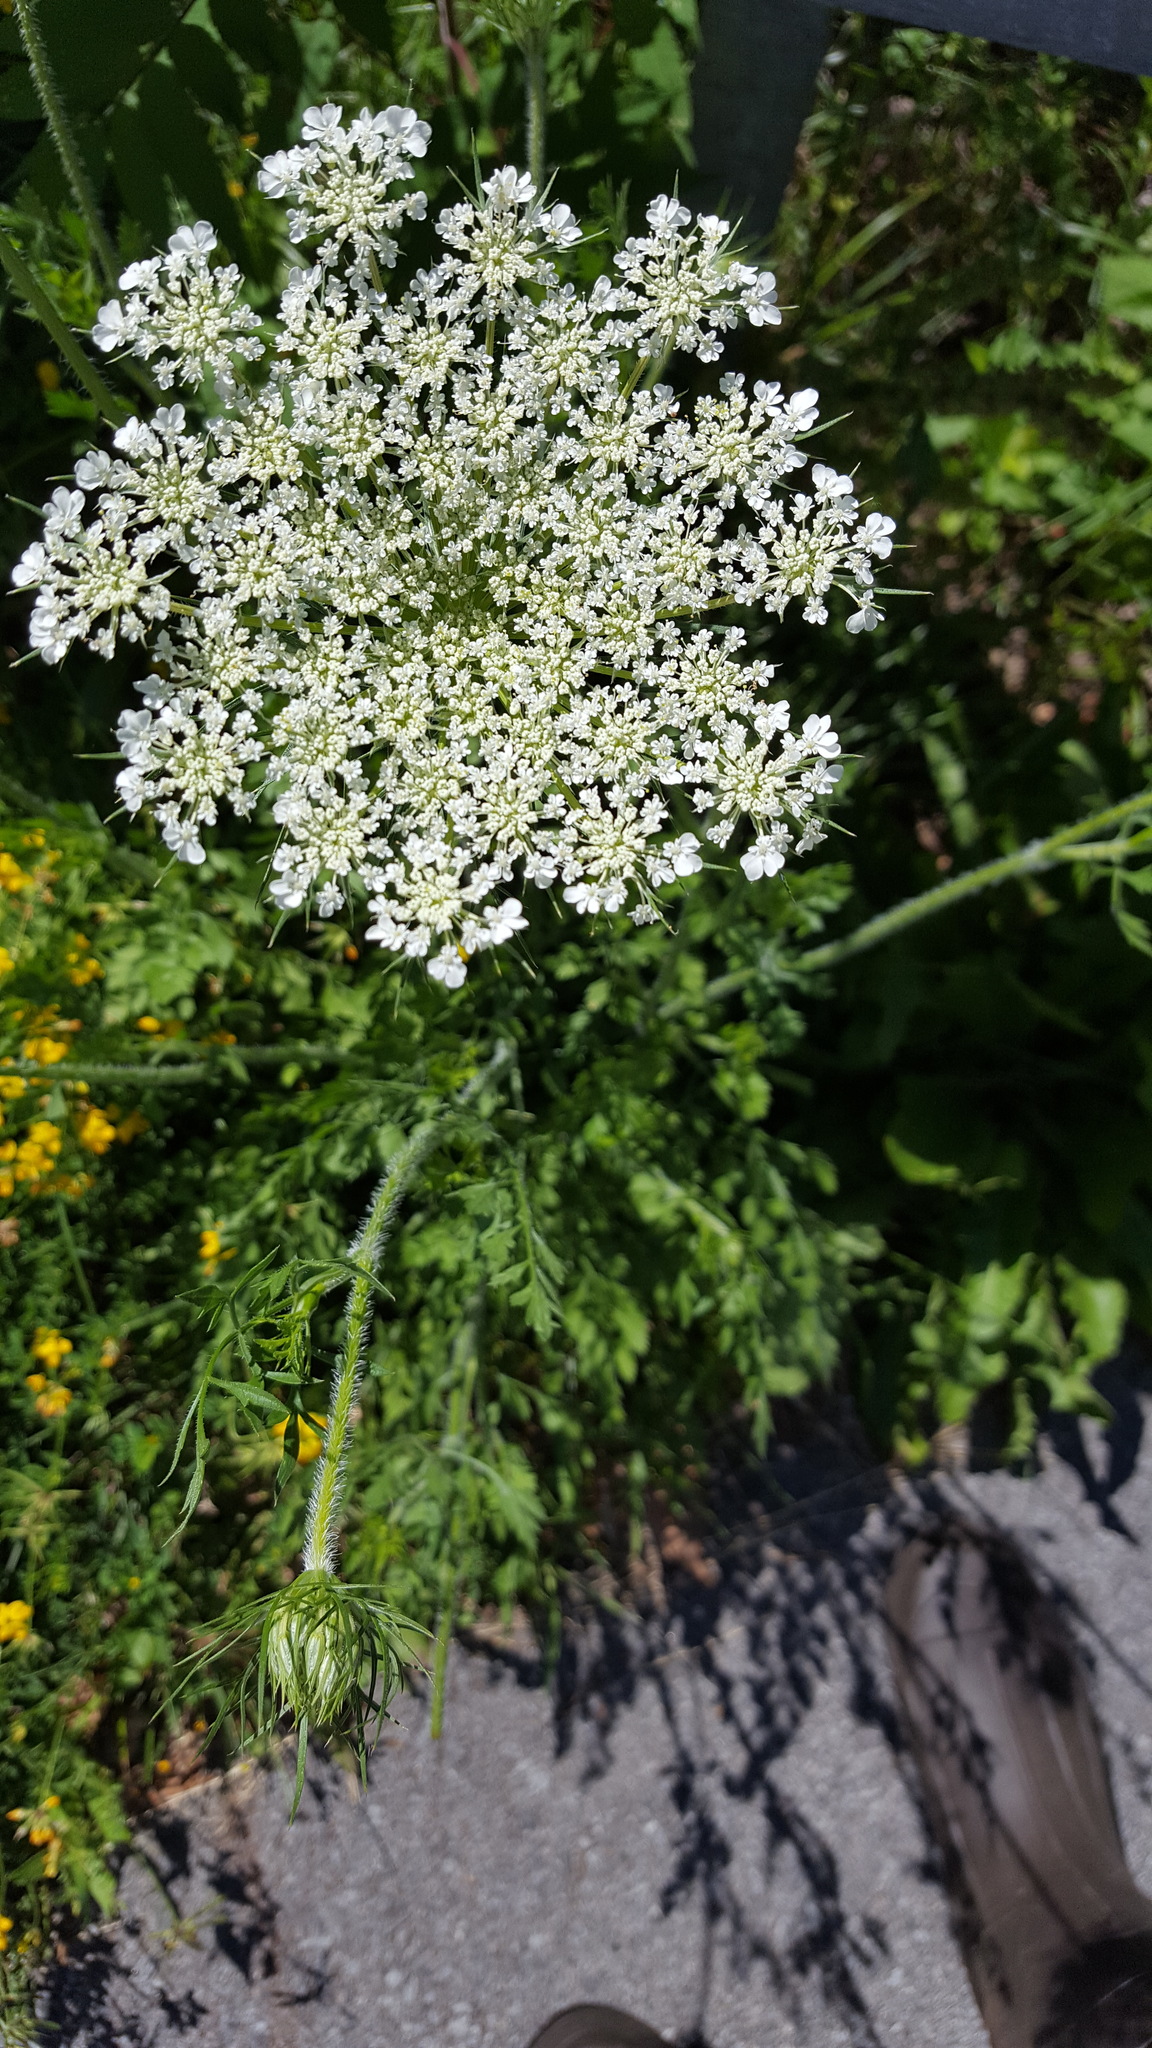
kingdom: Plantae
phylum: Tracheophyta
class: Magnoliopsida
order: Apiales
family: Apiaceae
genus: Daucus
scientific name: Daucus carota
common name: Wild carrot
